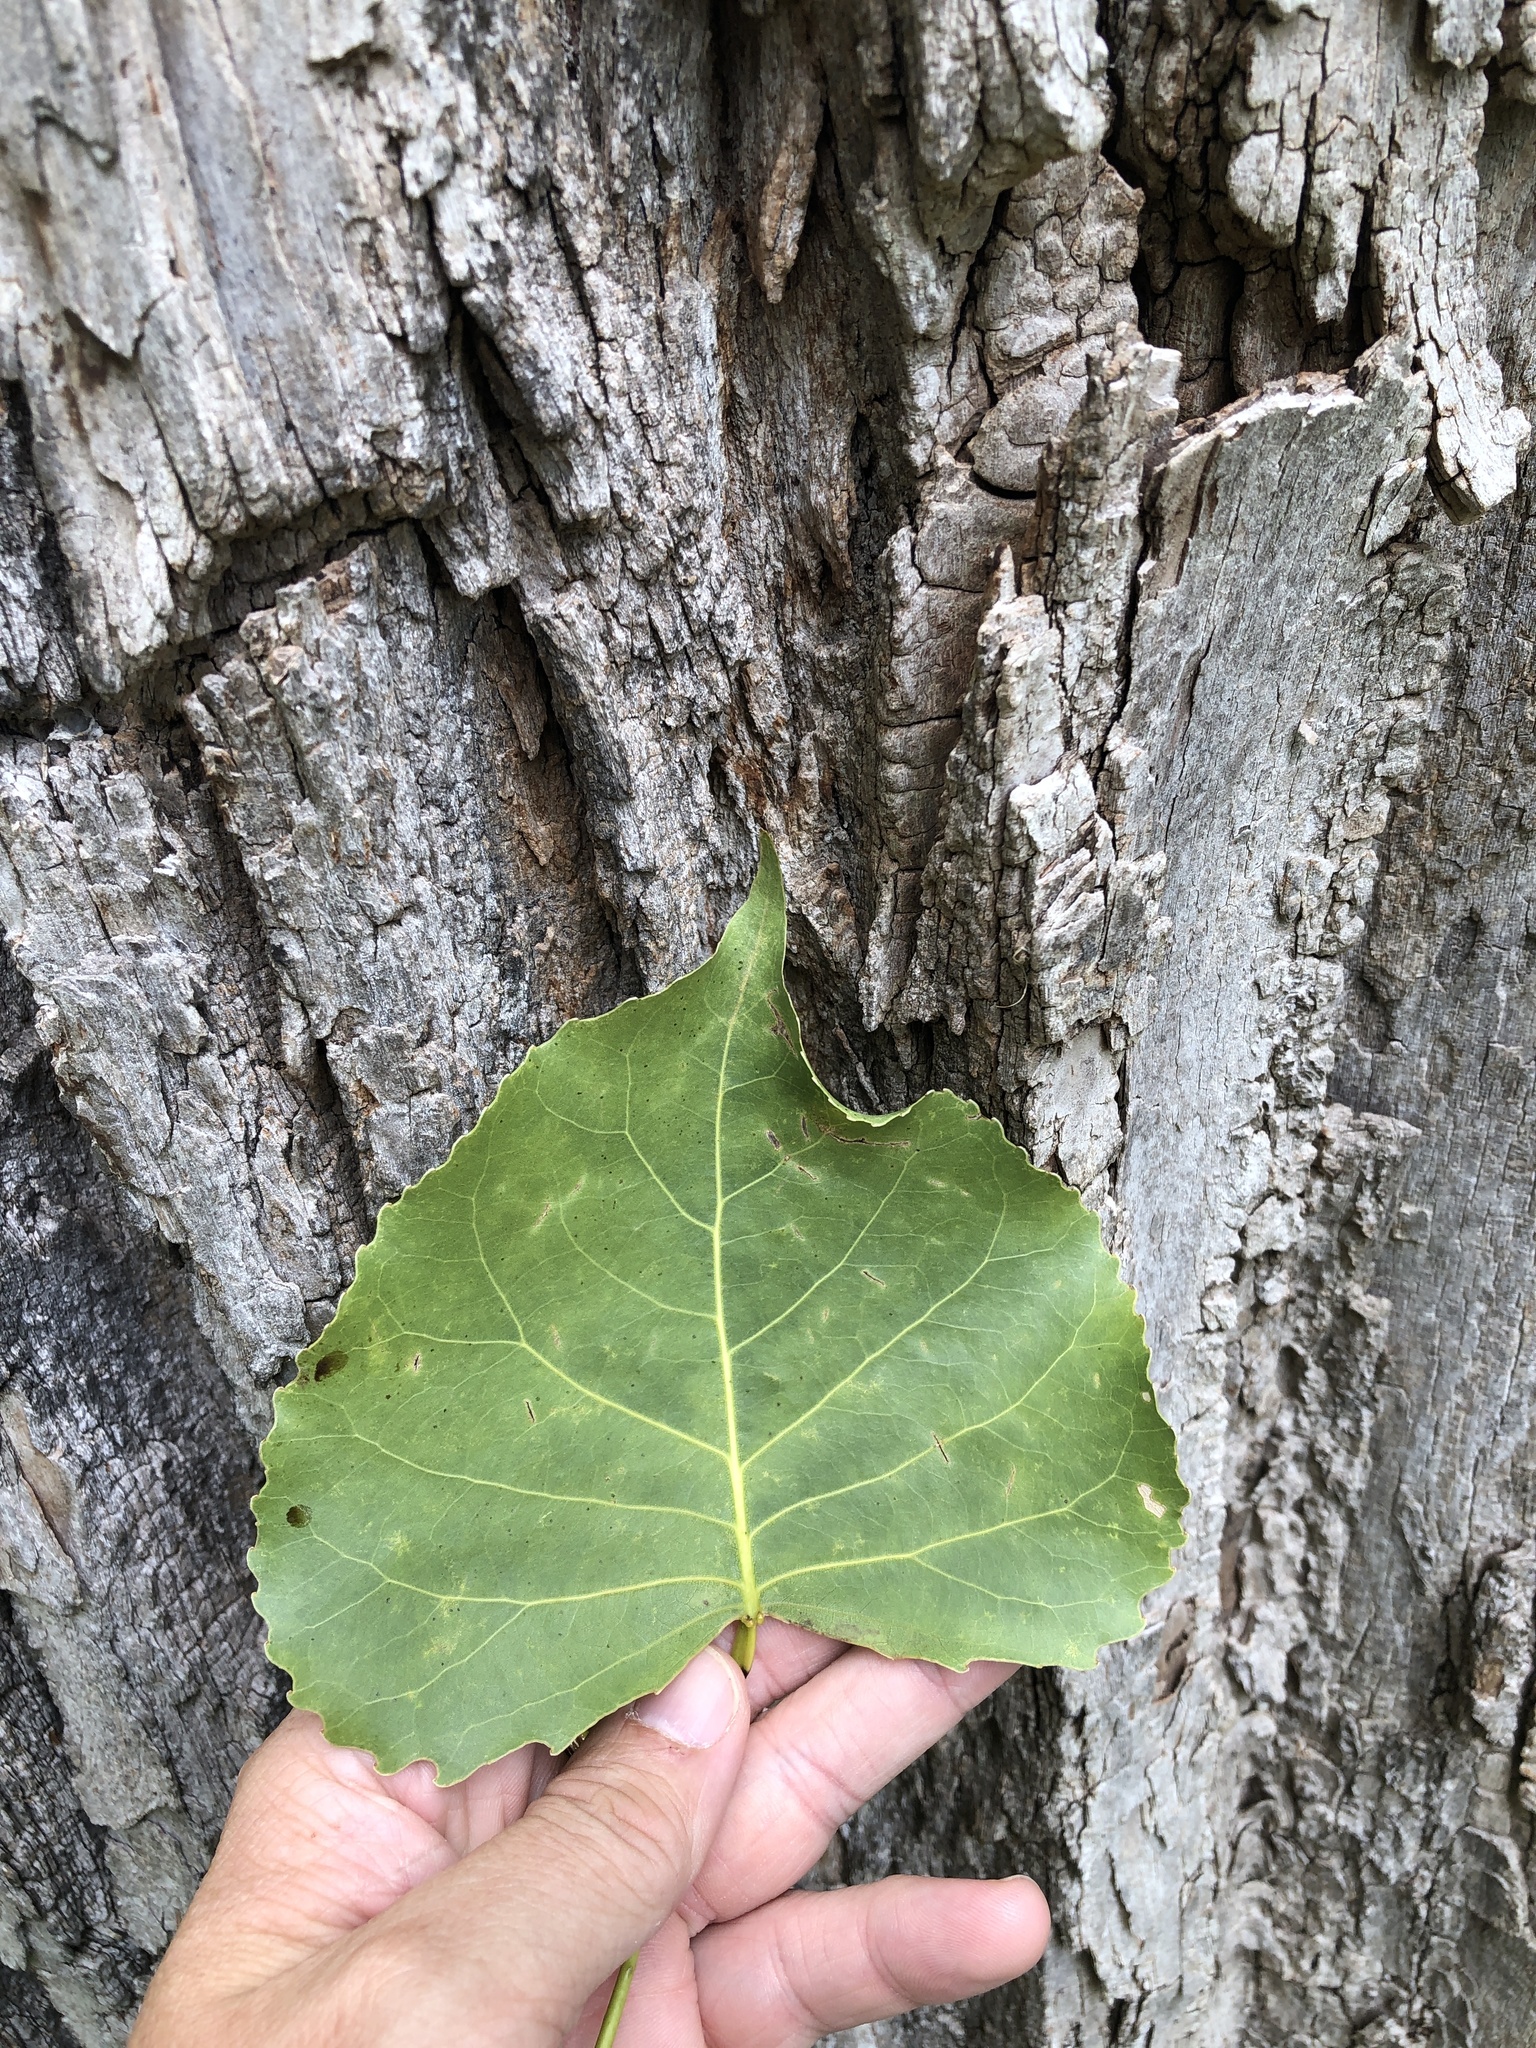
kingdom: Plantae
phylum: Tracheophyta
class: Magnoliopsida
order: Malpighiales
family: Salicaceae
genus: Populus
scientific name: Populus deltoides
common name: Eastern cottonwood
